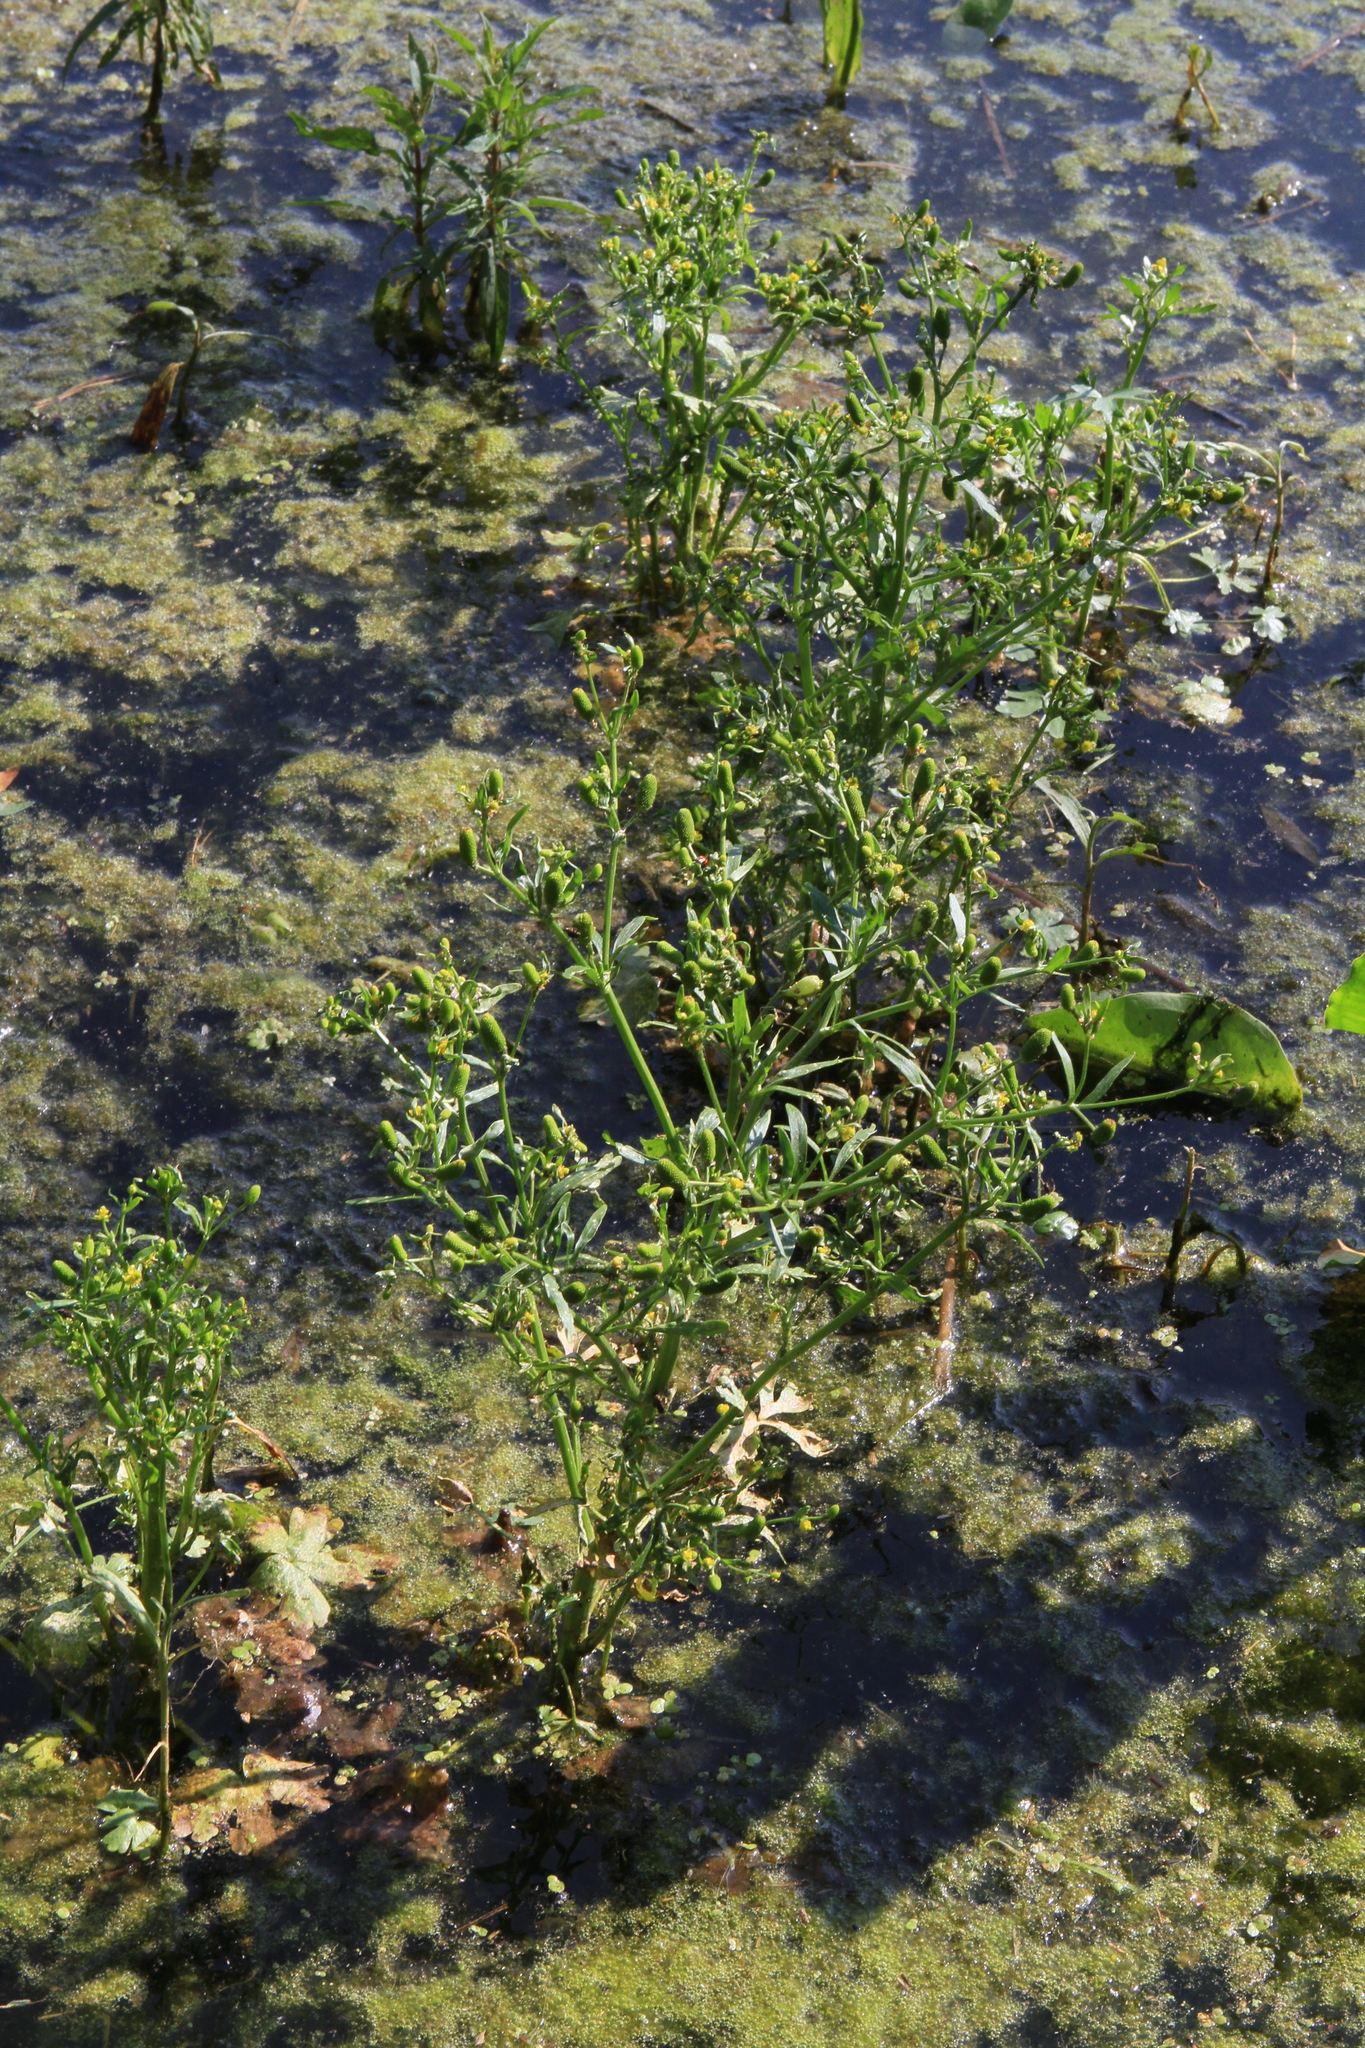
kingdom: Plantae
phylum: Tracheophyta
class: Magnoliopsida
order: Ranunculales
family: Ranunculaceae
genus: Ranunculus
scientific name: Ranunculus sceleratus
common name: Celery-leaved buttercup
